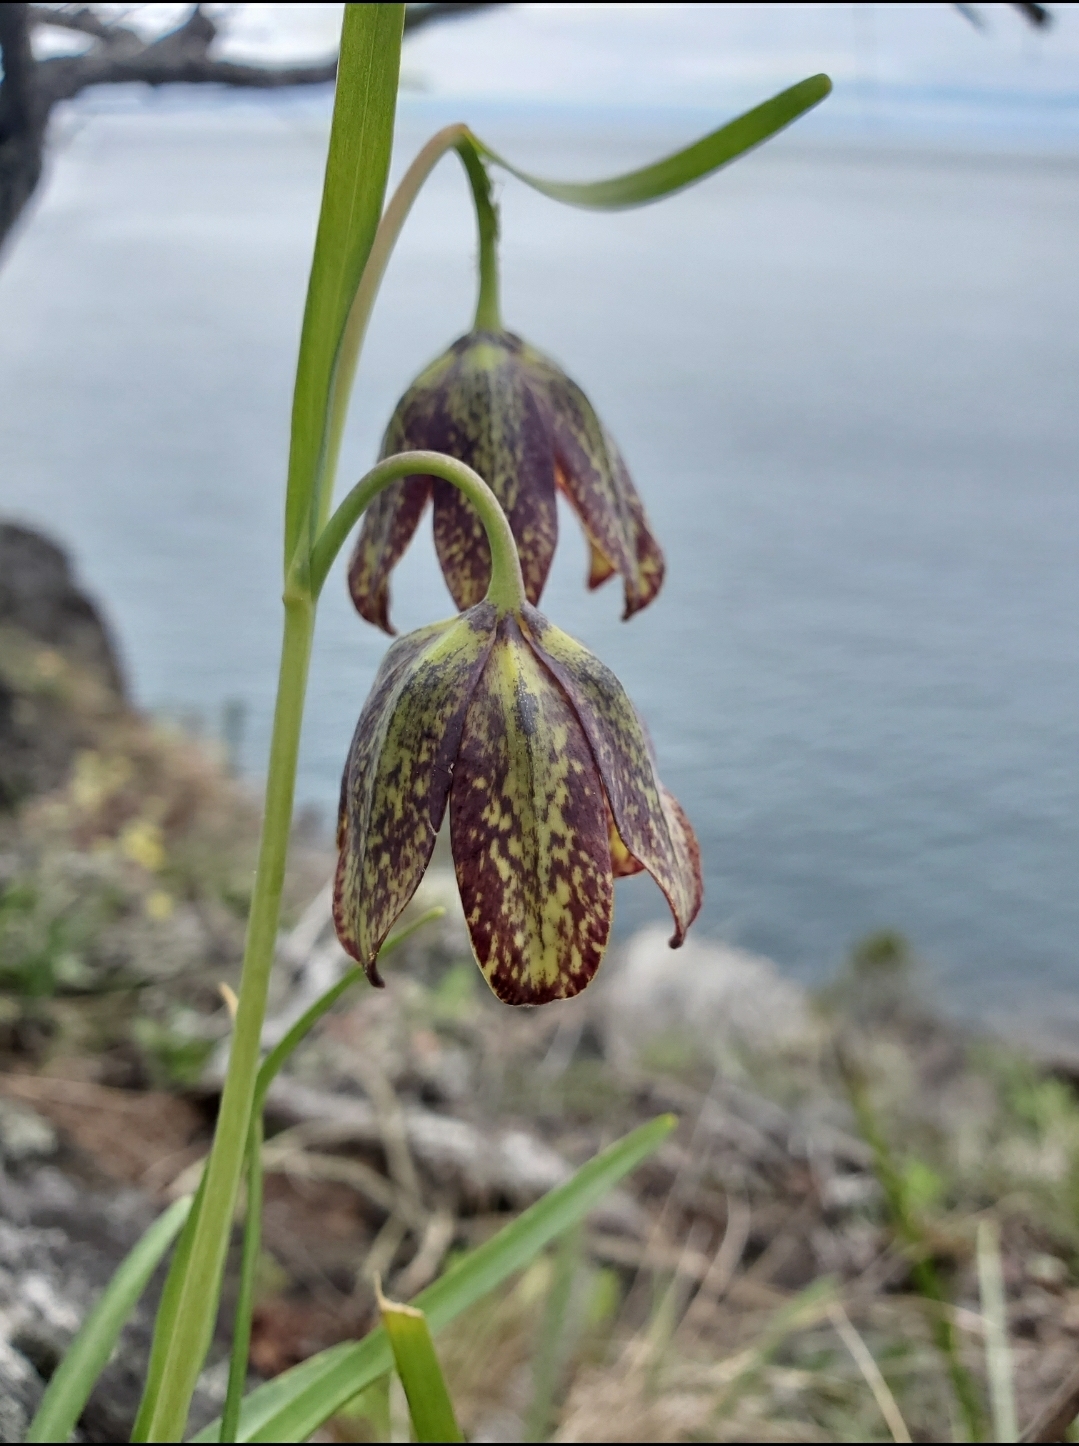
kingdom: Plantae
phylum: Tracheophyta
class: Liliopsida
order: Liliales
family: Liliaceae
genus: Fritillaria
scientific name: Fritillaria affinis
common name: Ojai fritillary
